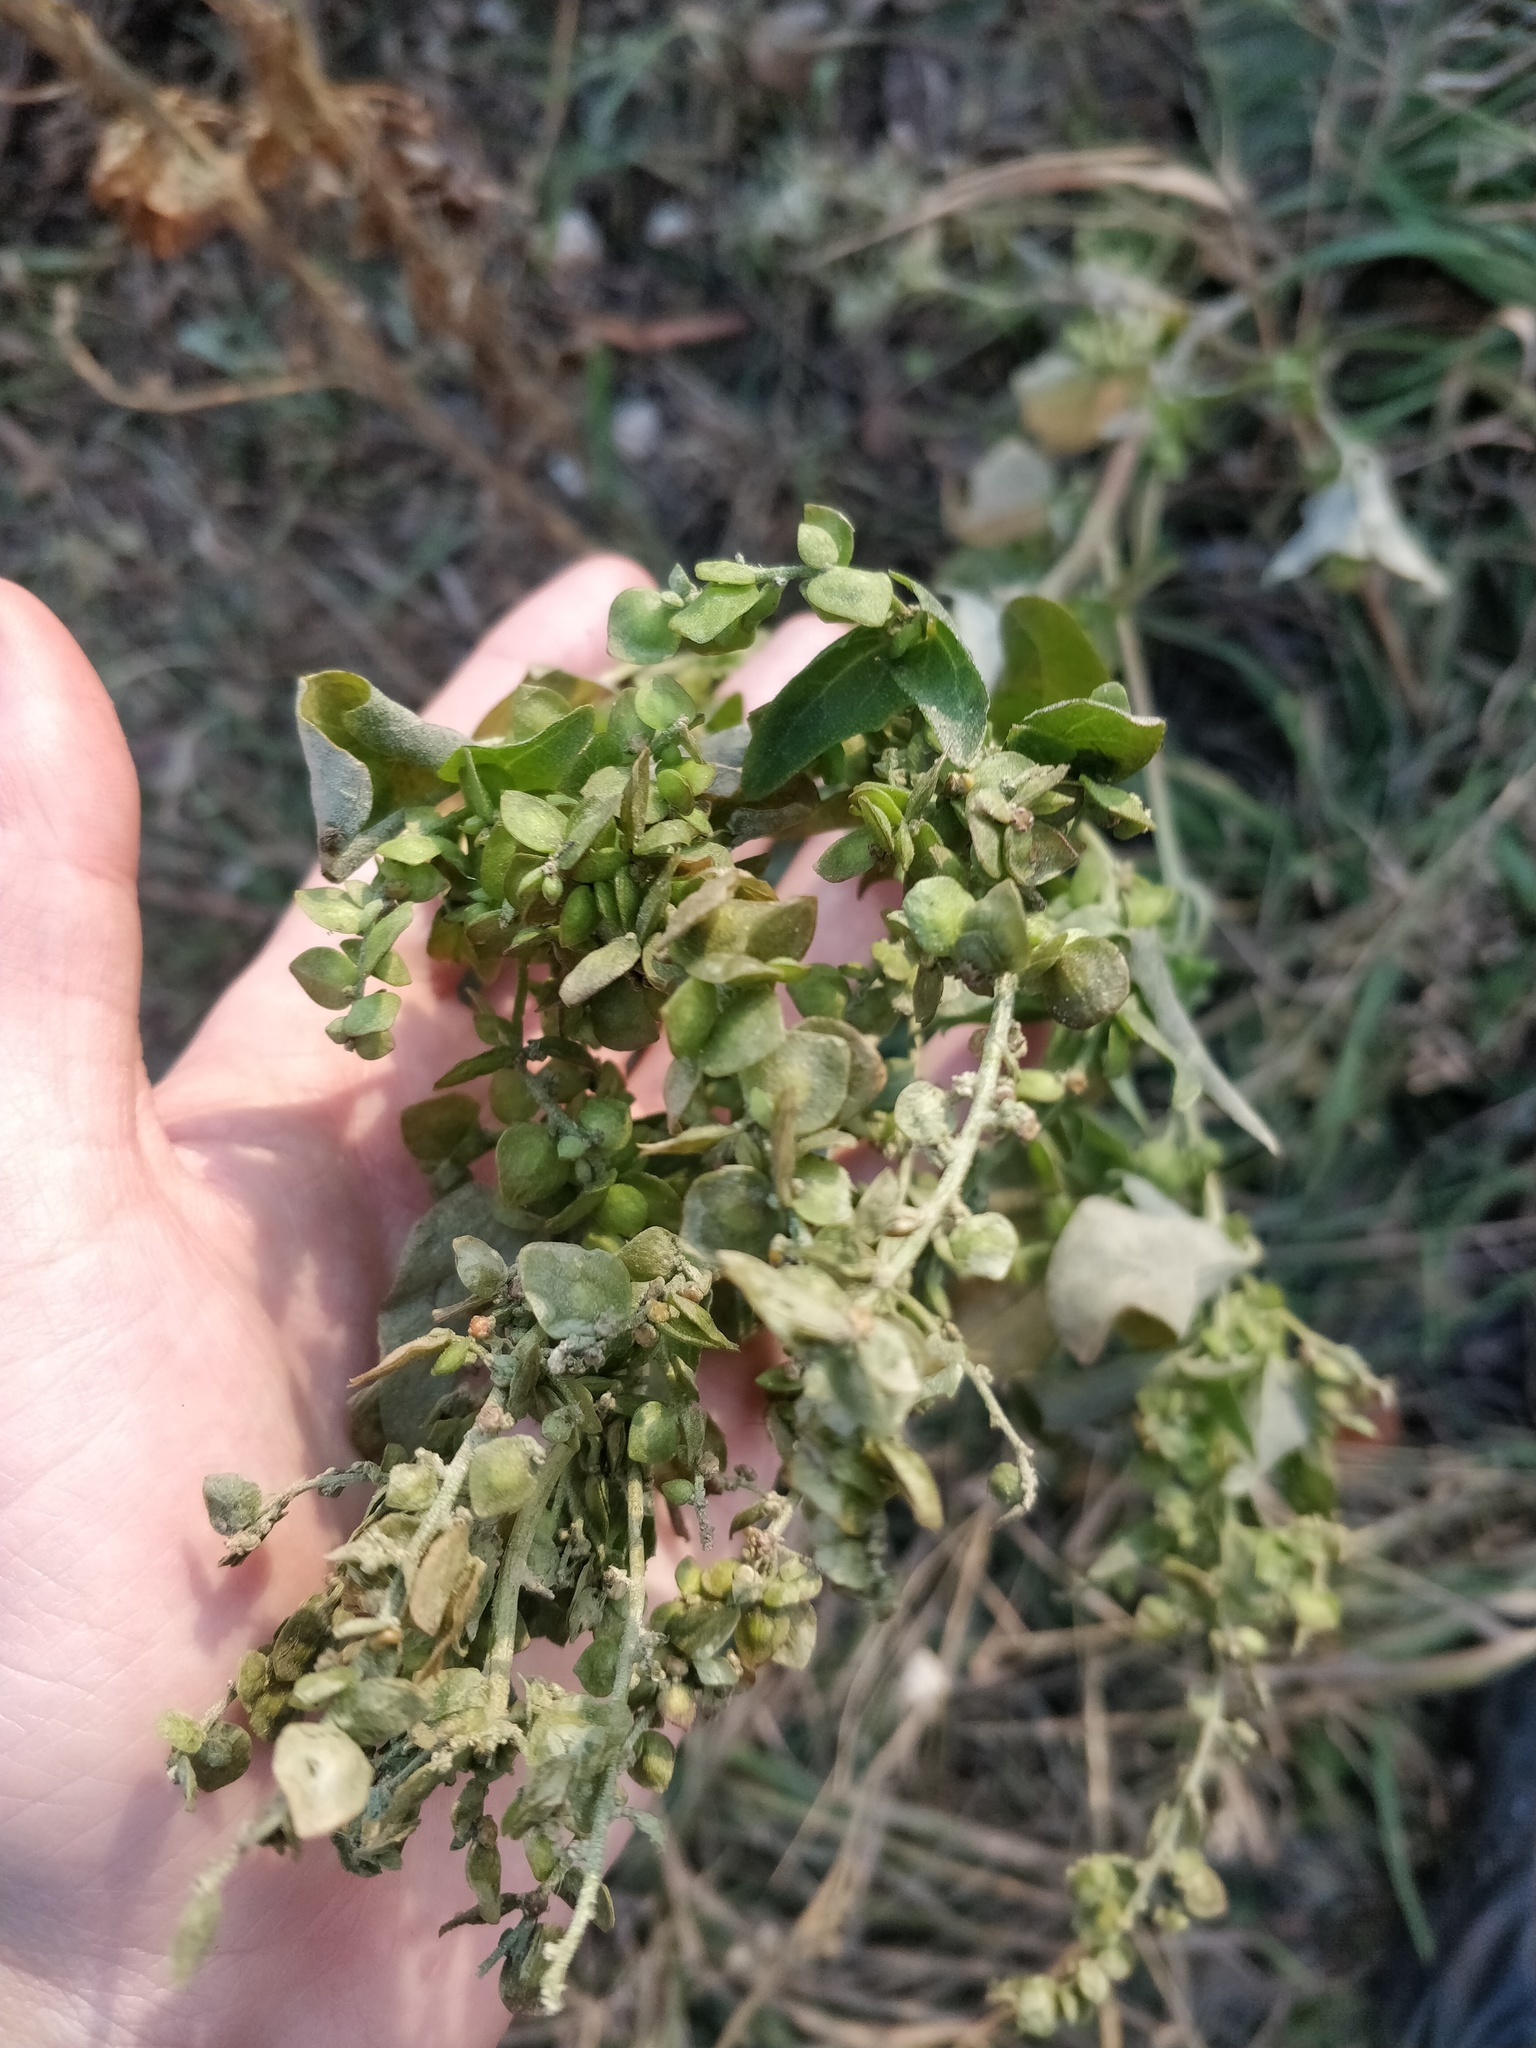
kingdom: Plantae
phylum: Tracheophyta
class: Magnoliopsida
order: Caryophyllales
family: Amaranthaceae
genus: Atriplex
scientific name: Atriplex sagittata
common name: Purple orache
